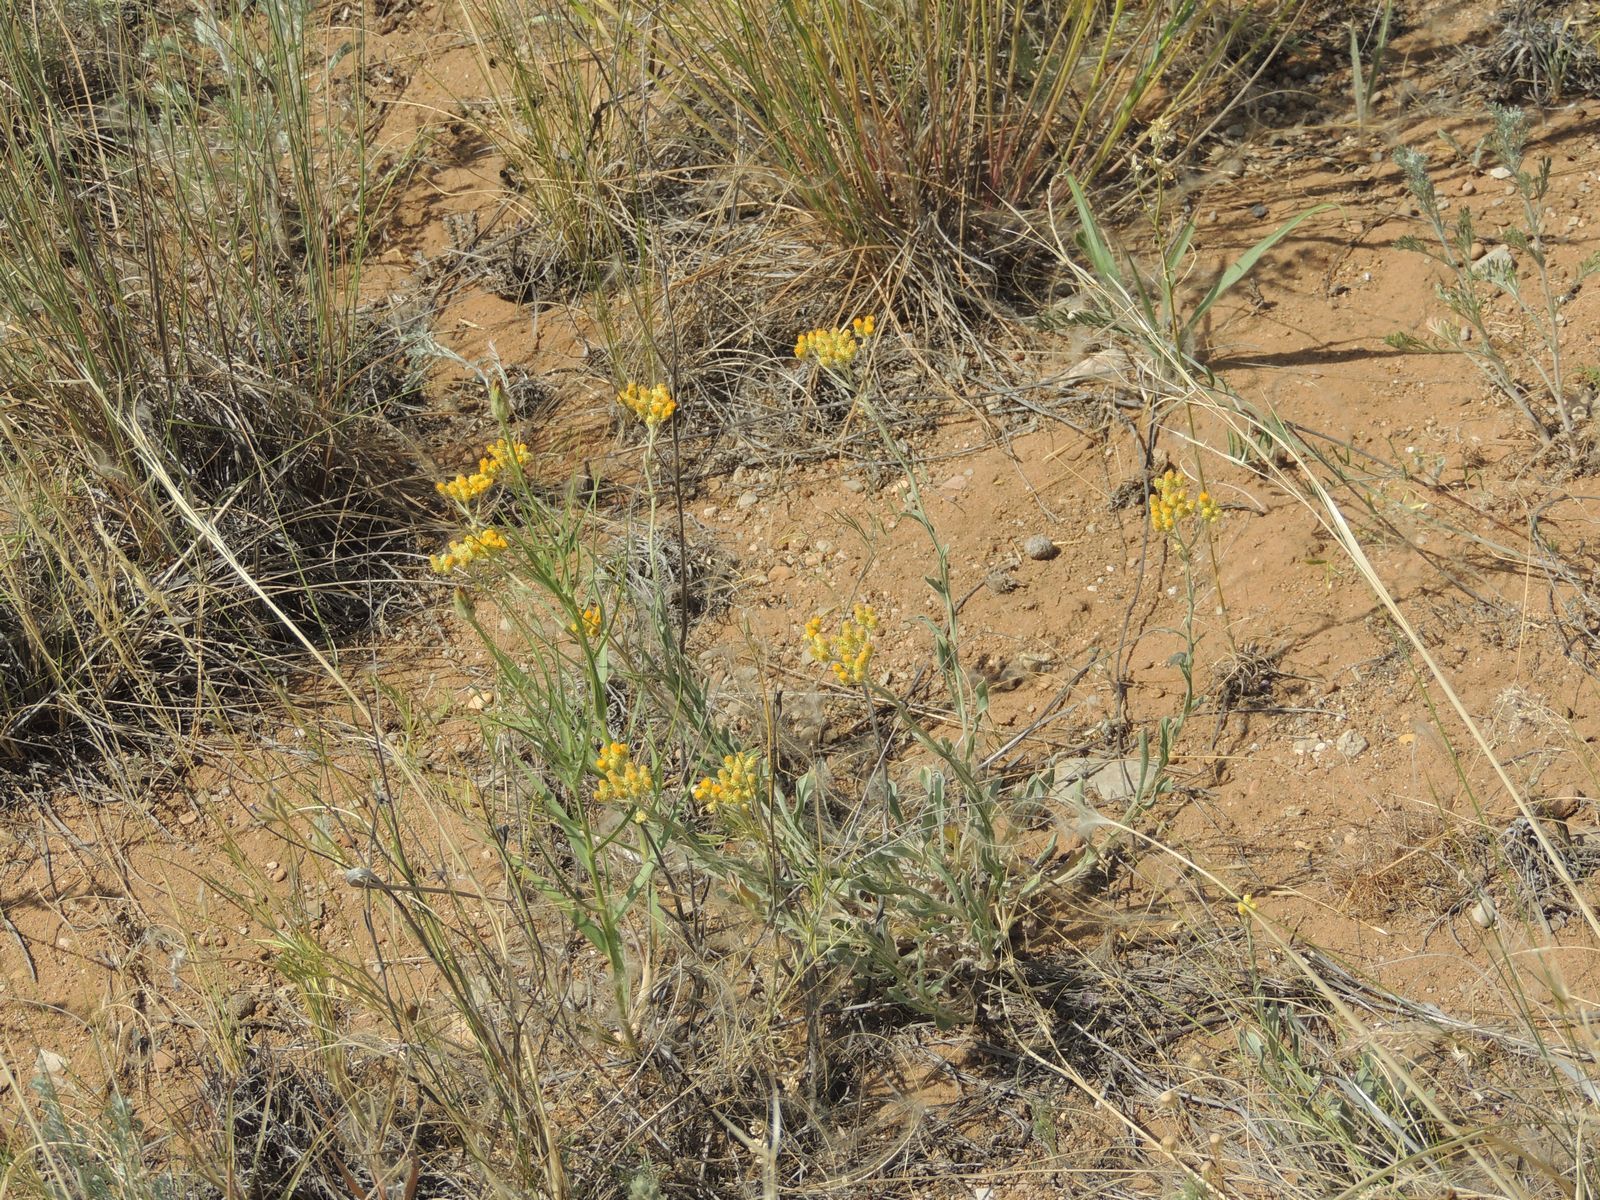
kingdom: Plantae
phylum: Tracheophyta
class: Magnoliopsida
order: Asterales
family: Asteraceae
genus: Helichrysum
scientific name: Helichrysum arenarium
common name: Strawflower
